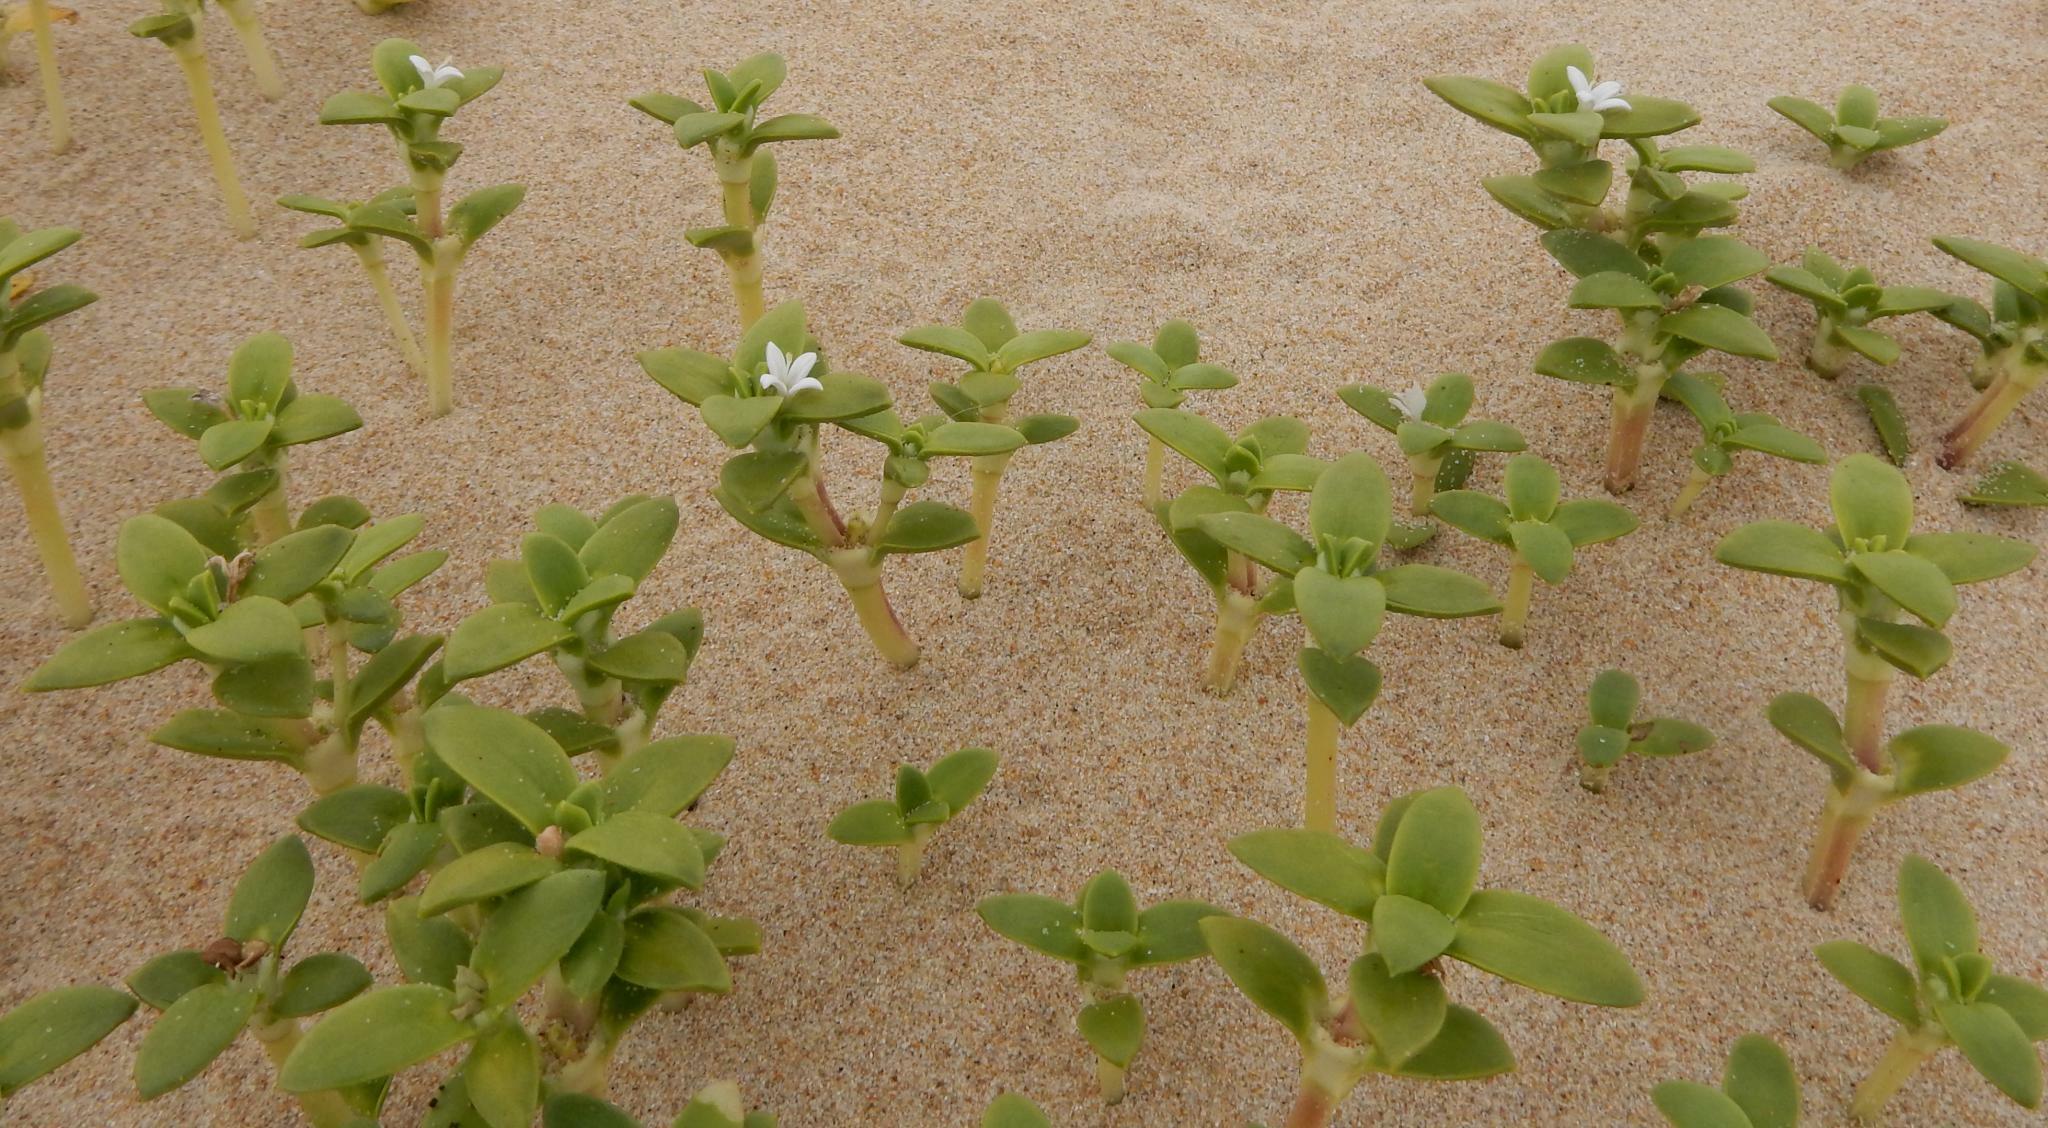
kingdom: Plantae
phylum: Tracheophyta
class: Magnoliopsida
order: Gentianales
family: Rubiaceae
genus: Phylohydrax
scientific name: Phylohydrax carnosa
